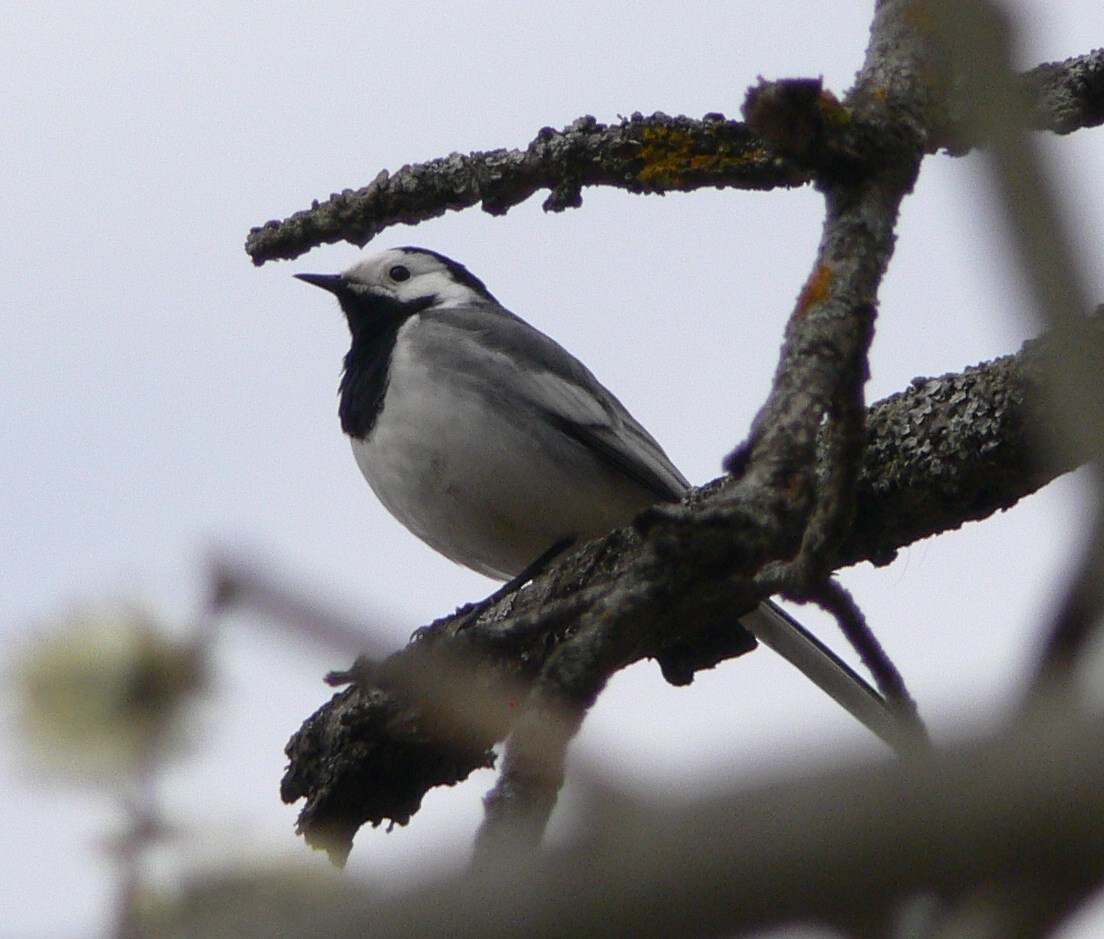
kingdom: Animalia
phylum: Chordata
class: Aves
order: Passeriformes
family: Motacillidae
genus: Motacilla
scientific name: Motacilla alba
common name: White wagtail
